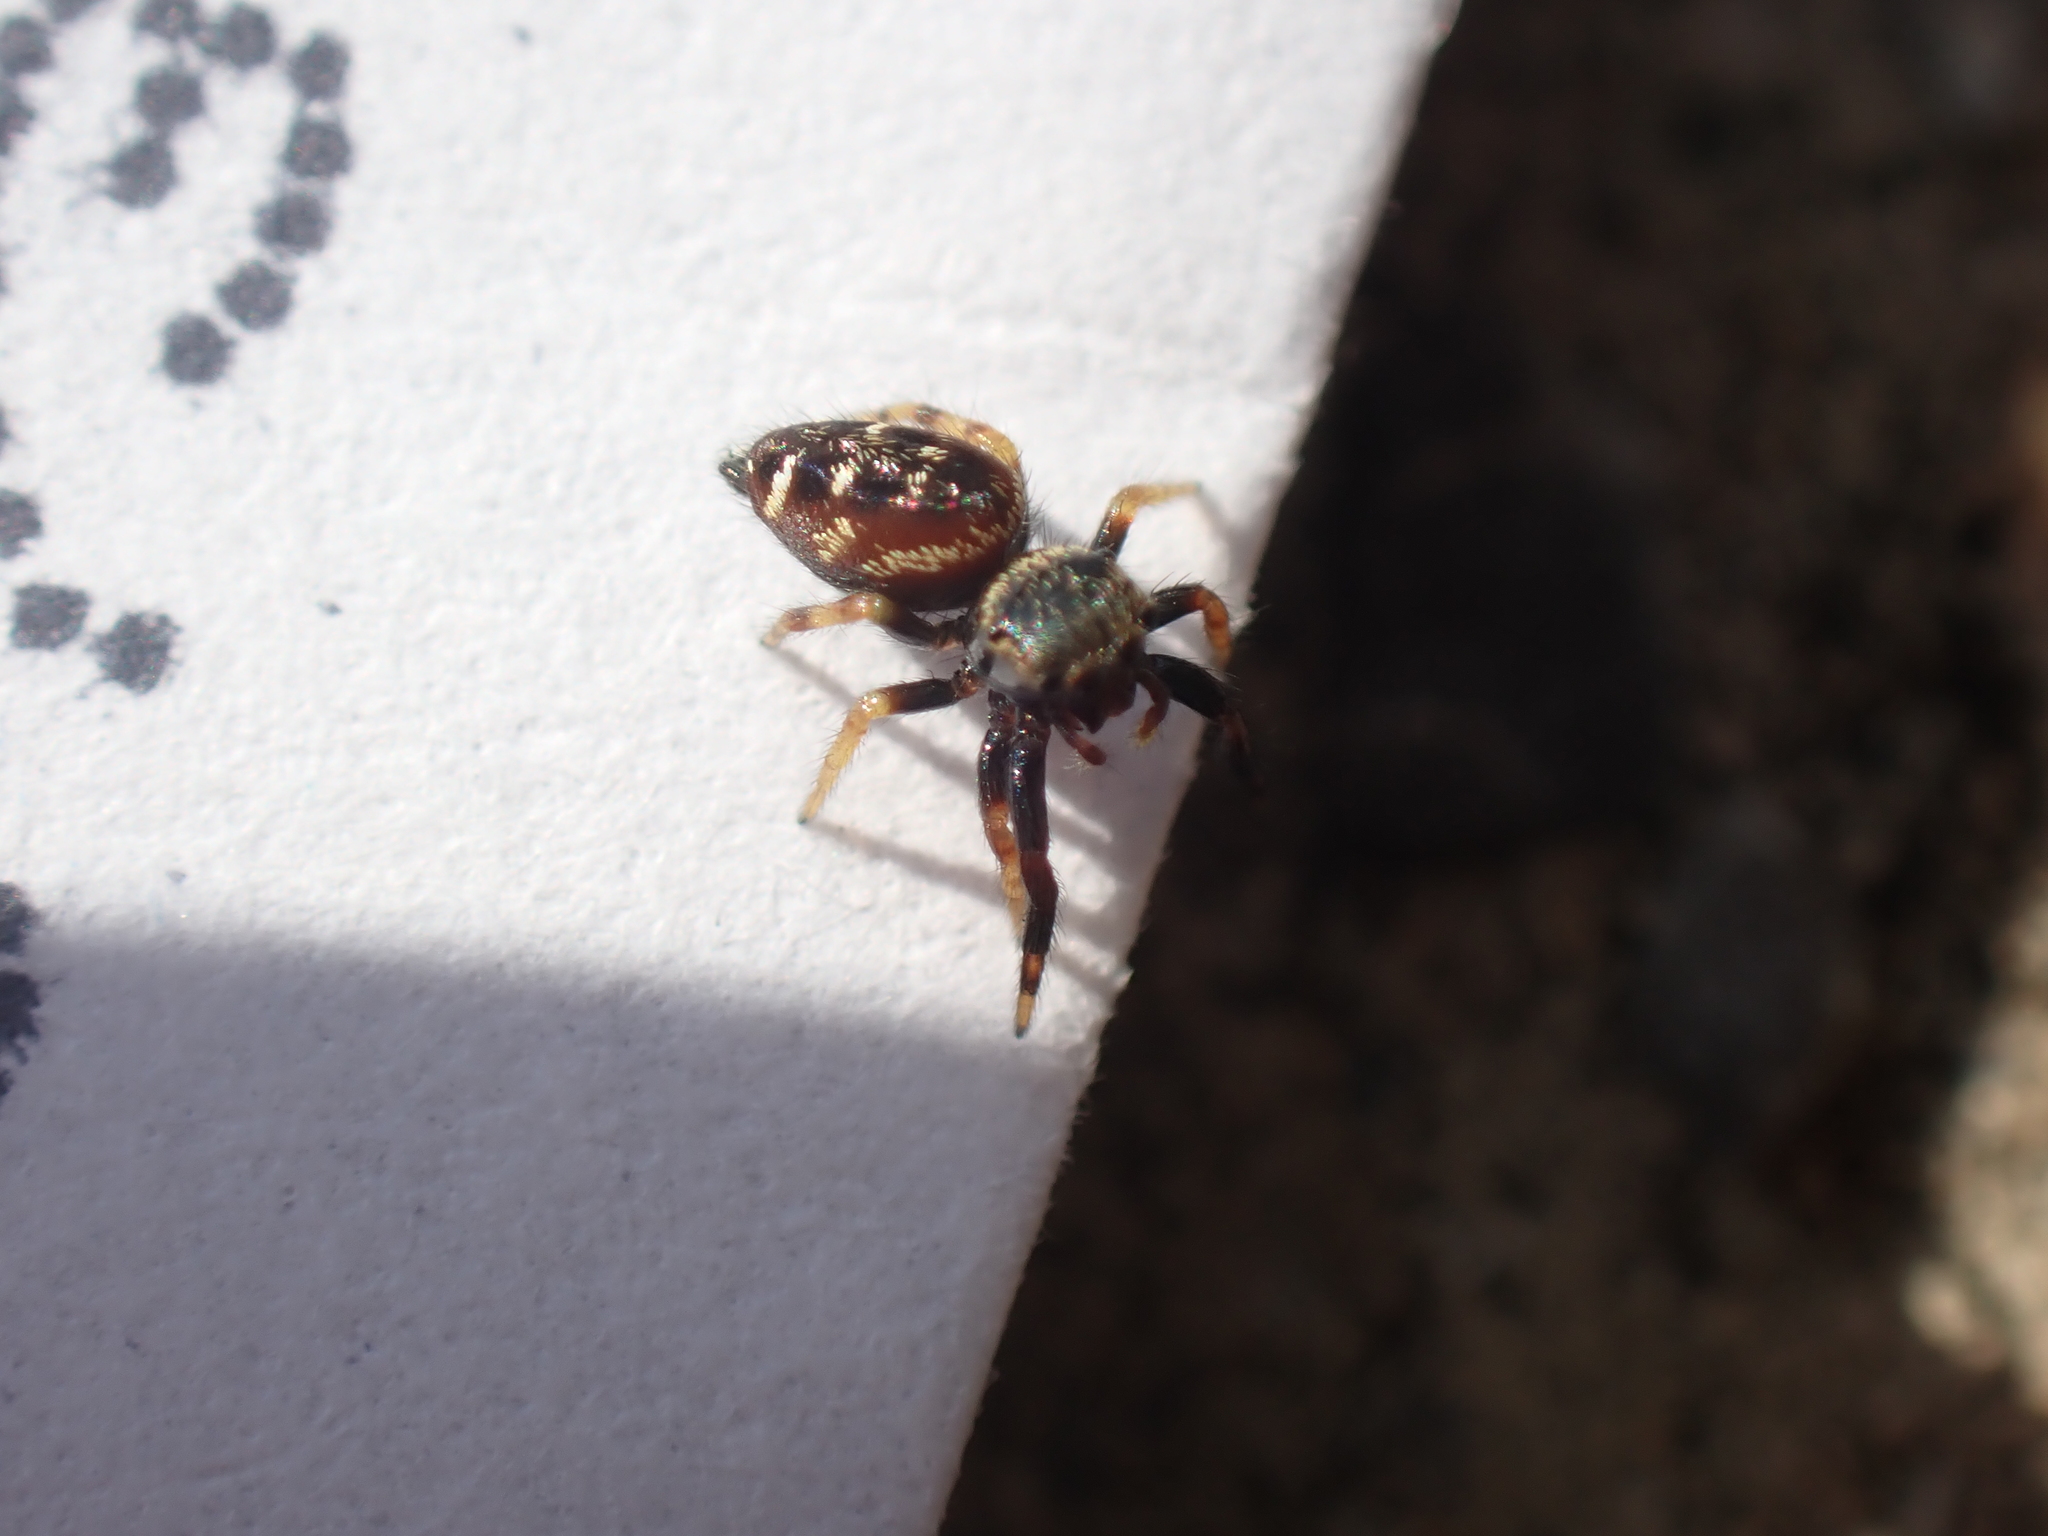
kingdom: Animalia
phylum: Arthropoda
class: Arachnida
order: Araneae
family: Salticidae
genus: Paraphidippus
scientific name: Paraphidippus aurantius
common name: Jumping spiders
